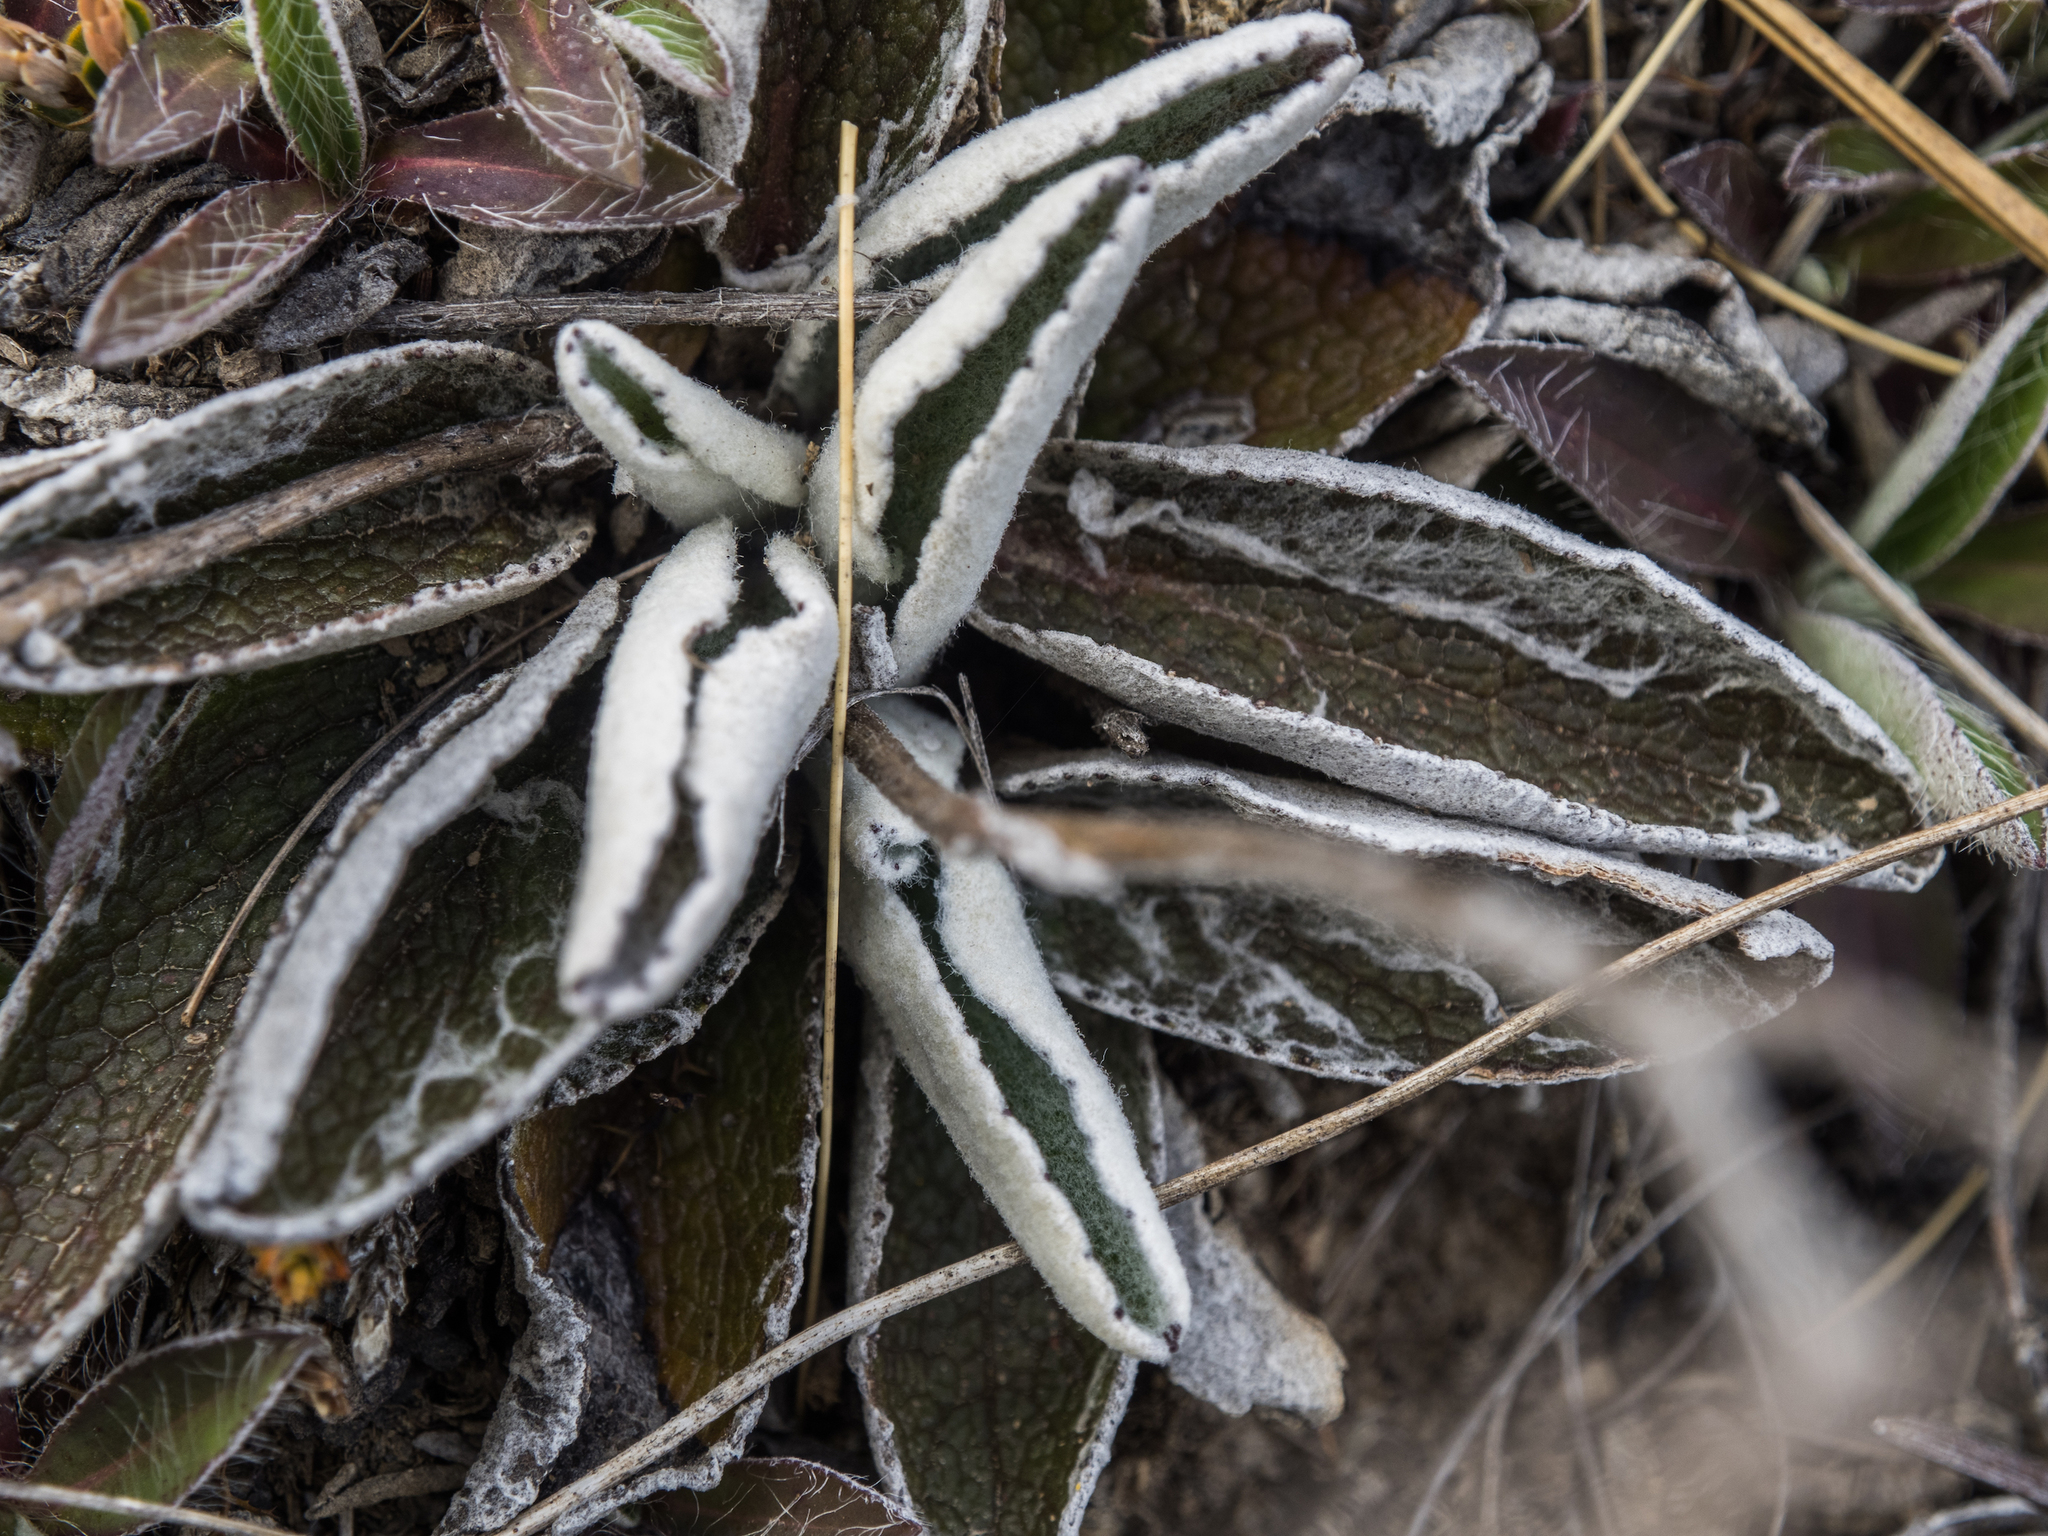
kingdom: Plantae
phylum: Tracheophyta
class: Magnoliopsida
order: Asterales
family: Asteraceae
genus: Brachyglottis
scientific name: Brachyglottis bellidioides
